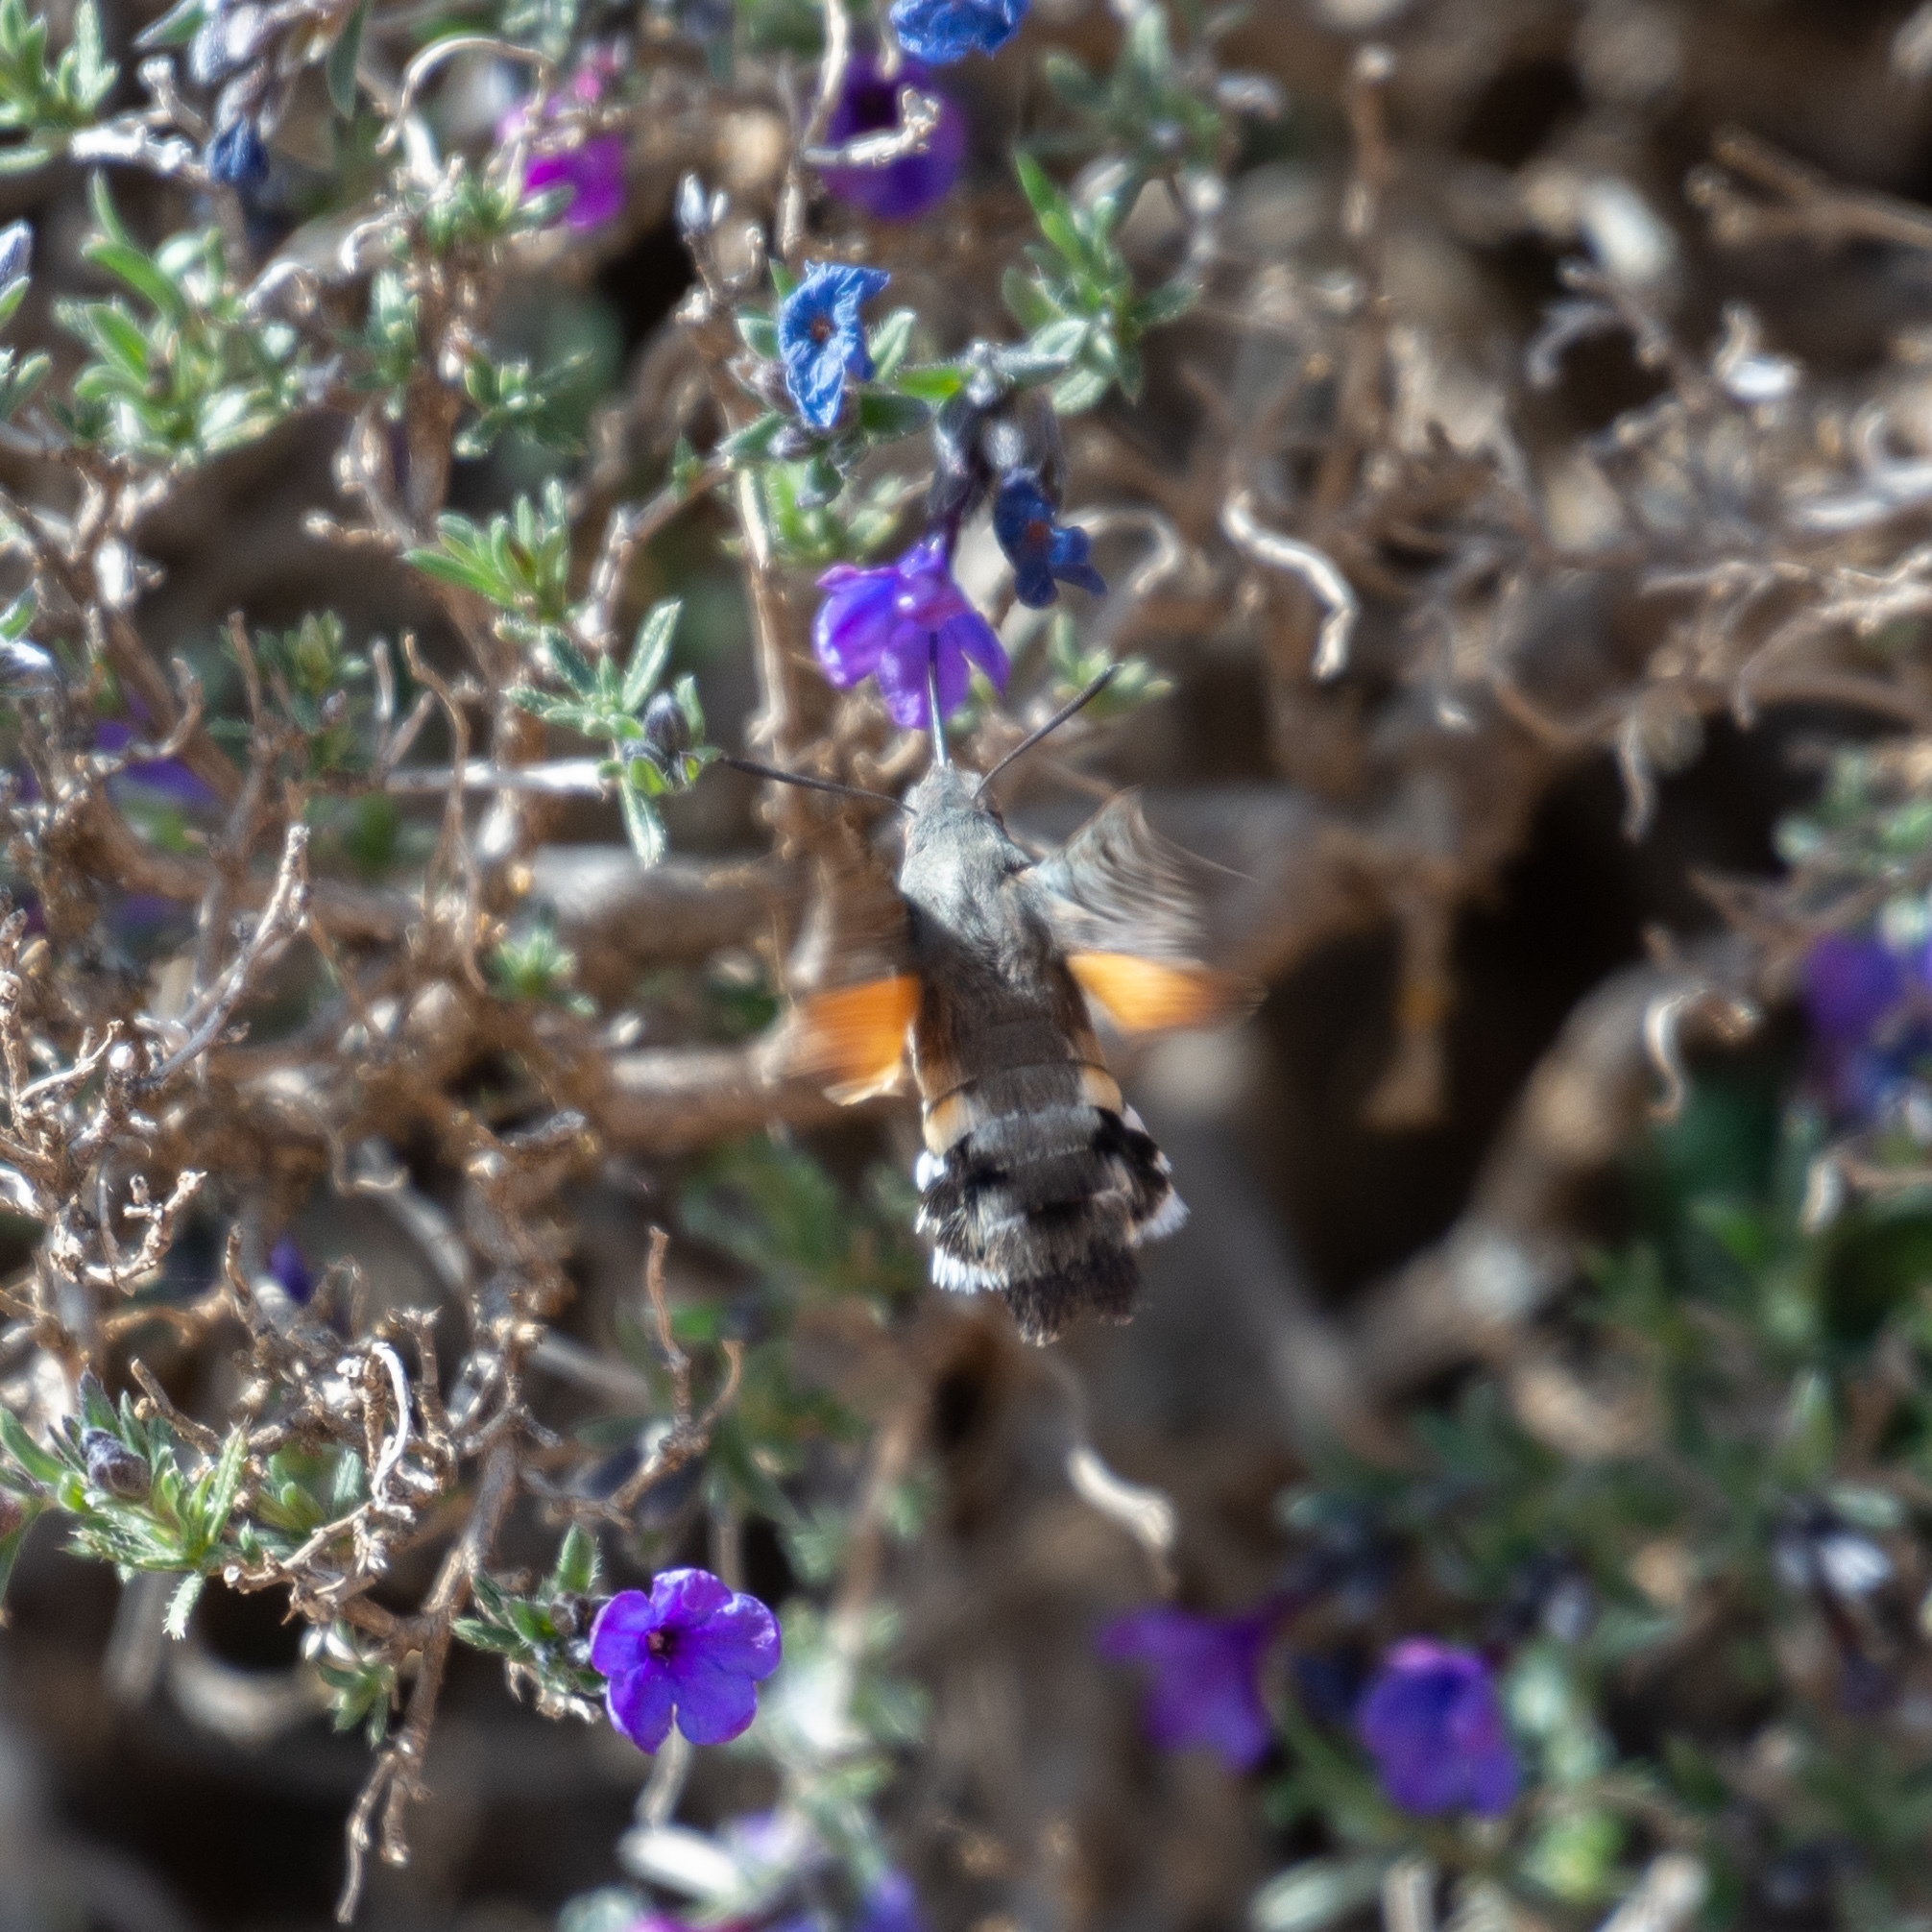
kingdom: Animalia
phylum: Arthropoda
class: Insecta
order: Lepidoptera
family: Sphingidae
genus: Macroglossum
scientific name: Macroglossum stellatarum
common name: Humming-bird hawk-moth
